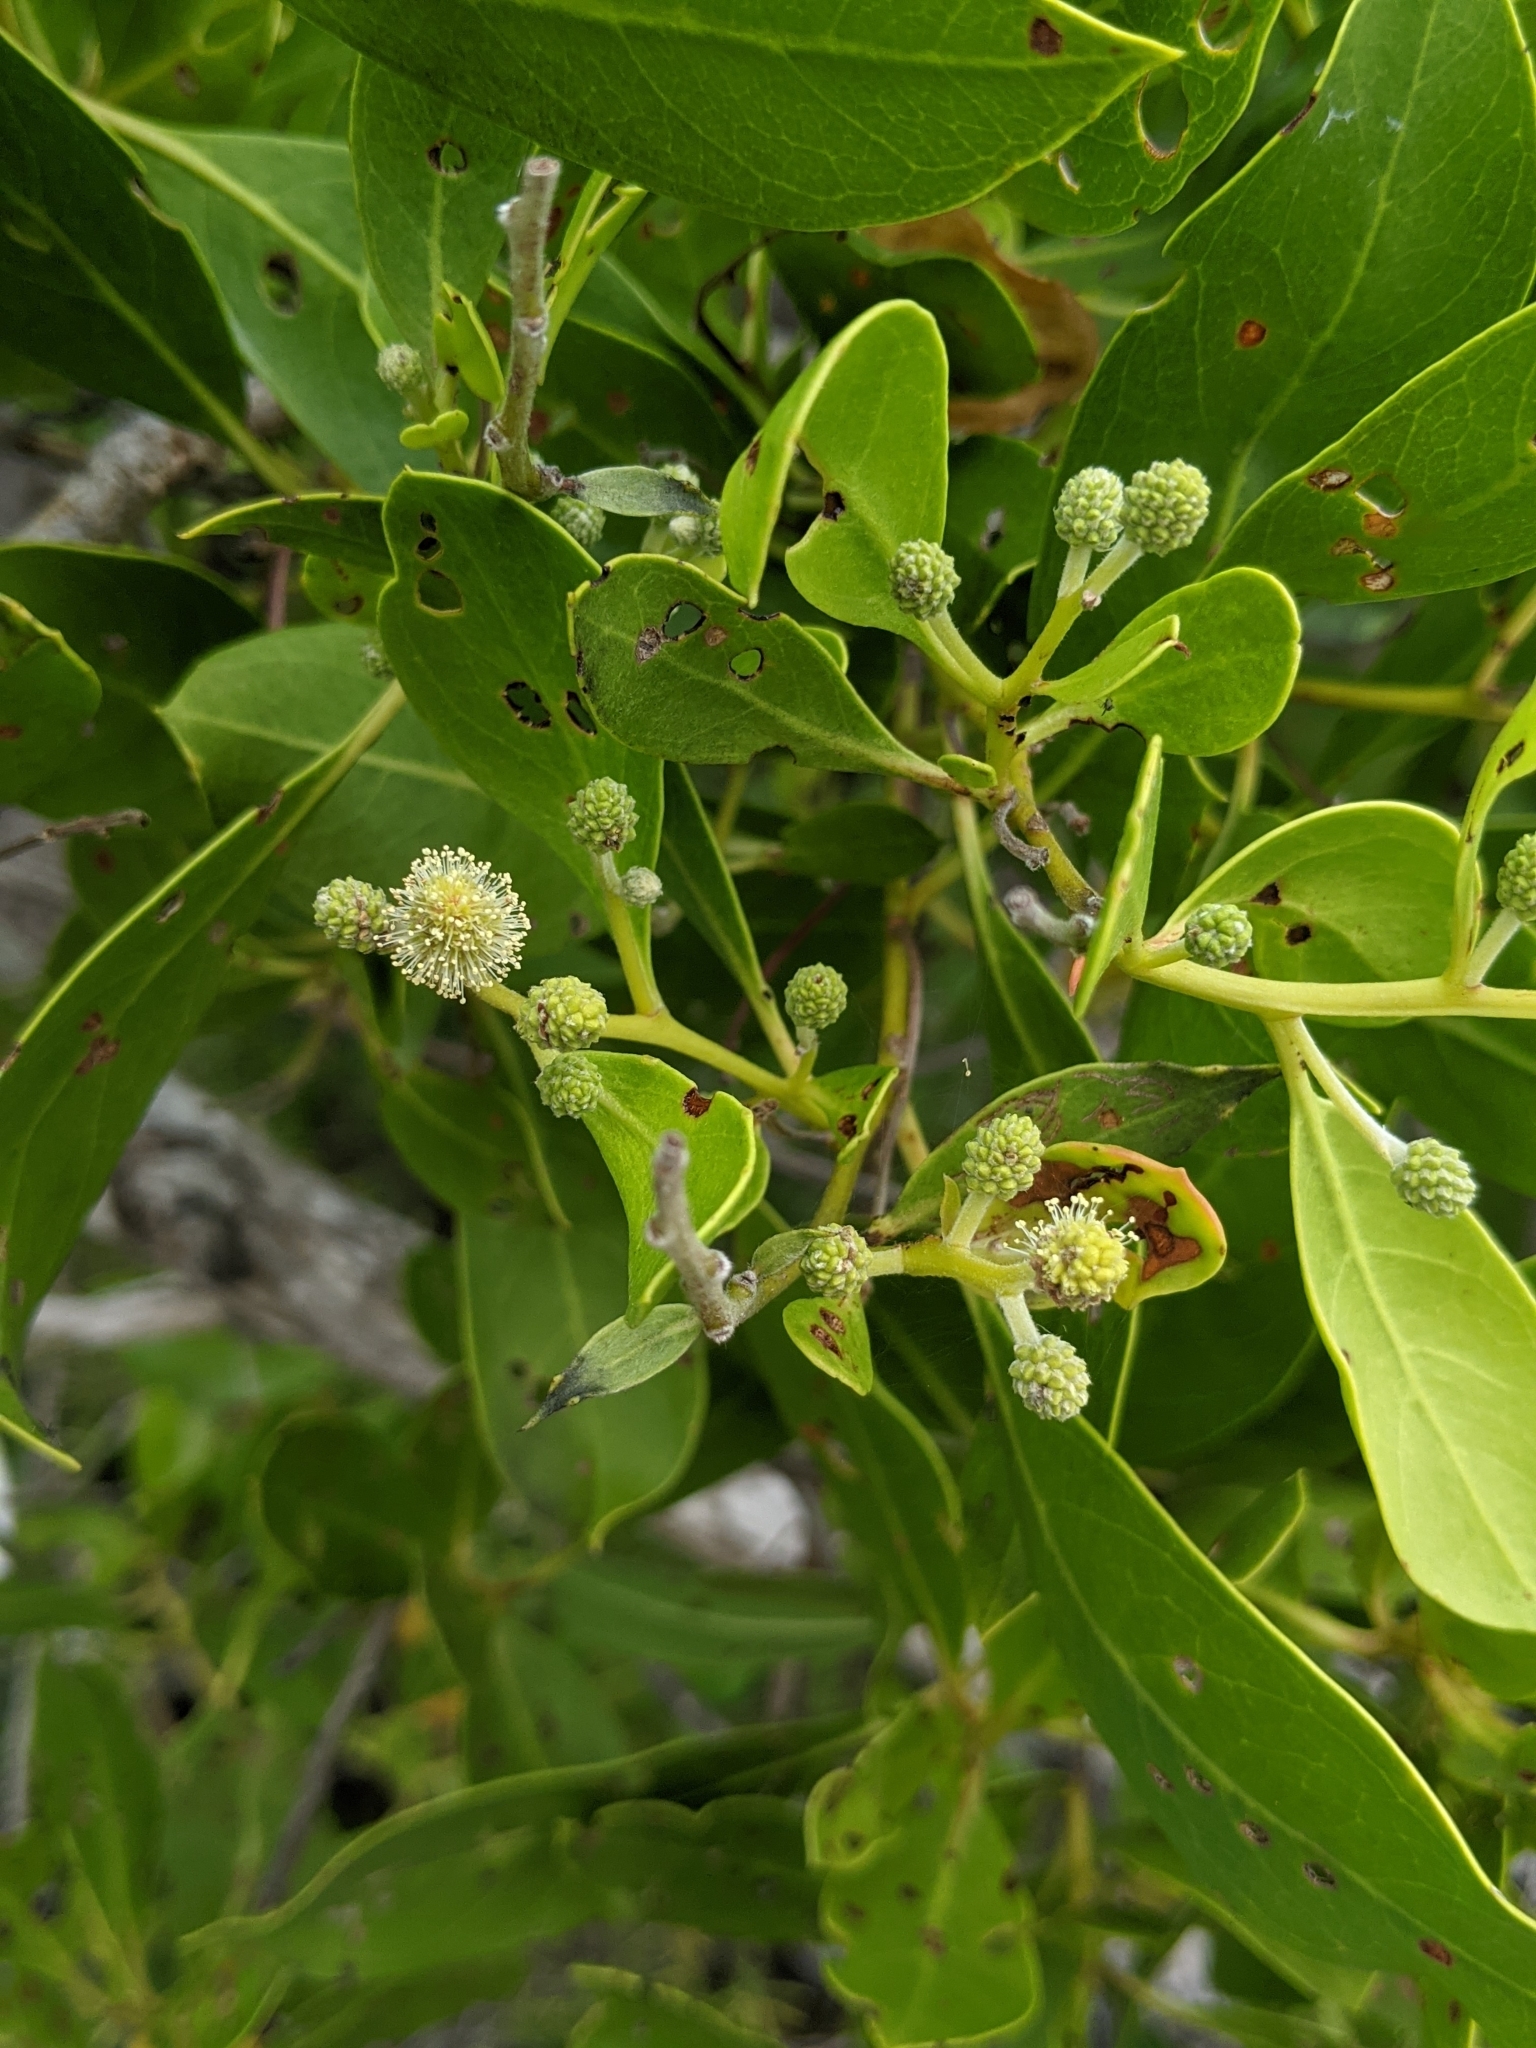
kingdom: Plantae
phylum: Tracheophyta
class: Magnoliopsida
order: Myrtales
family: Combretaceae
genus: Conocarpus
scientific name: Conocarpus erectus
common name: Button mangrove
